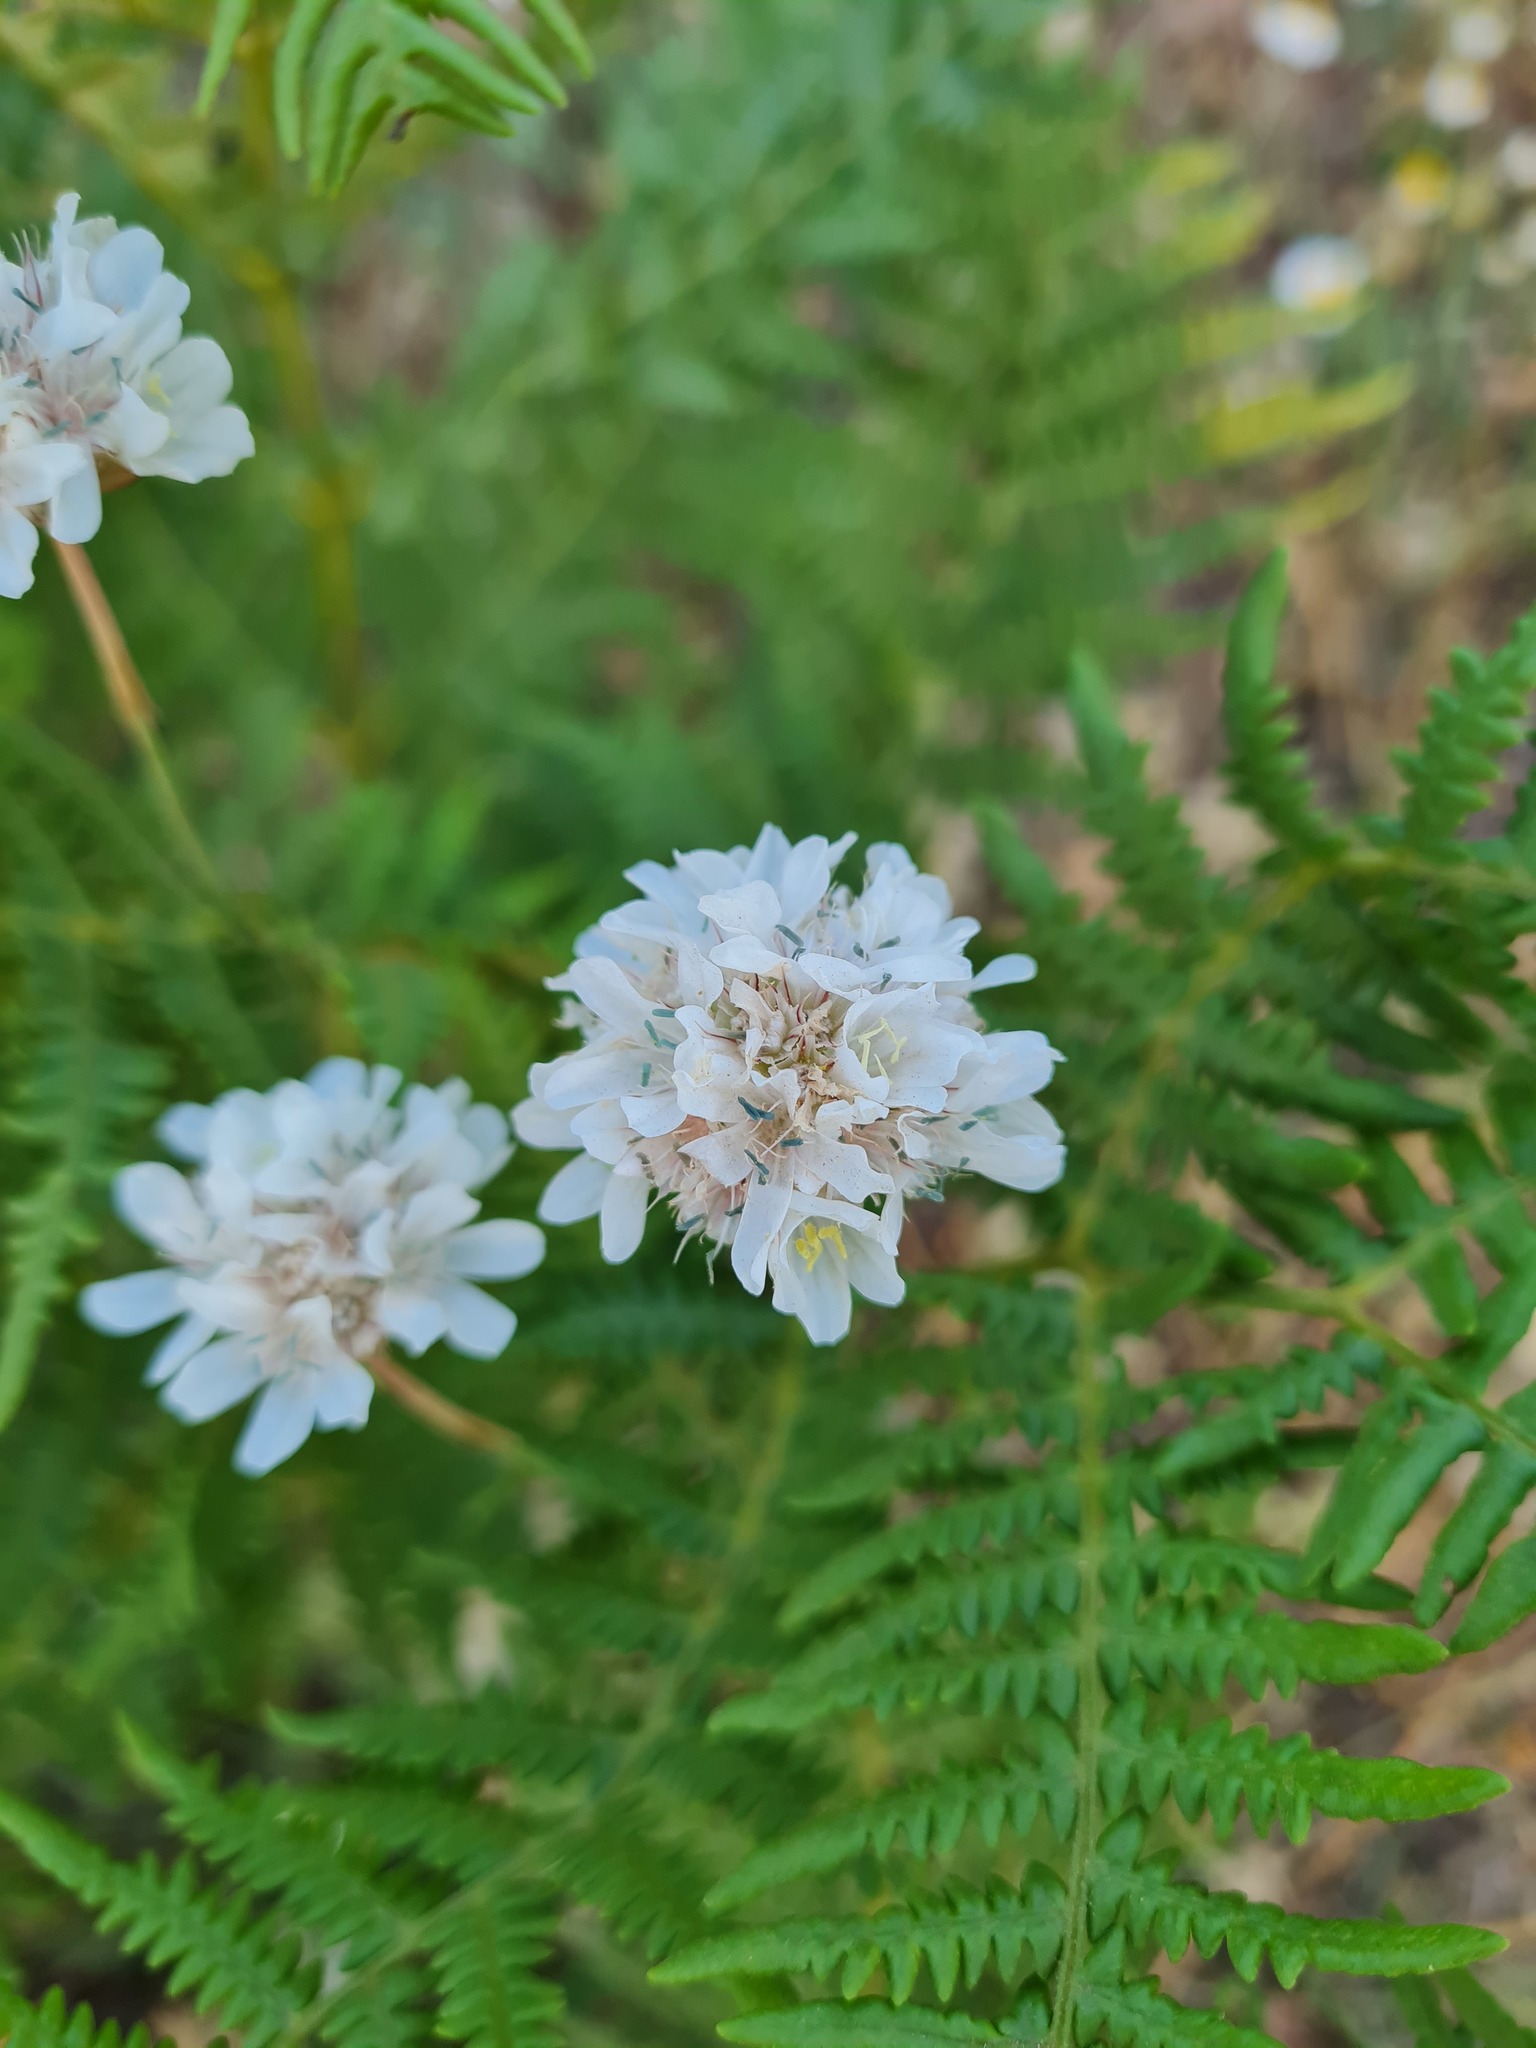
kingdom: Plantae
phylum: Tracheophyta
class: Magnoliopsida
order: Caryophyllales
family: Plumbaginaceae
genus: Armeria
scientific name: Armeria canescens
